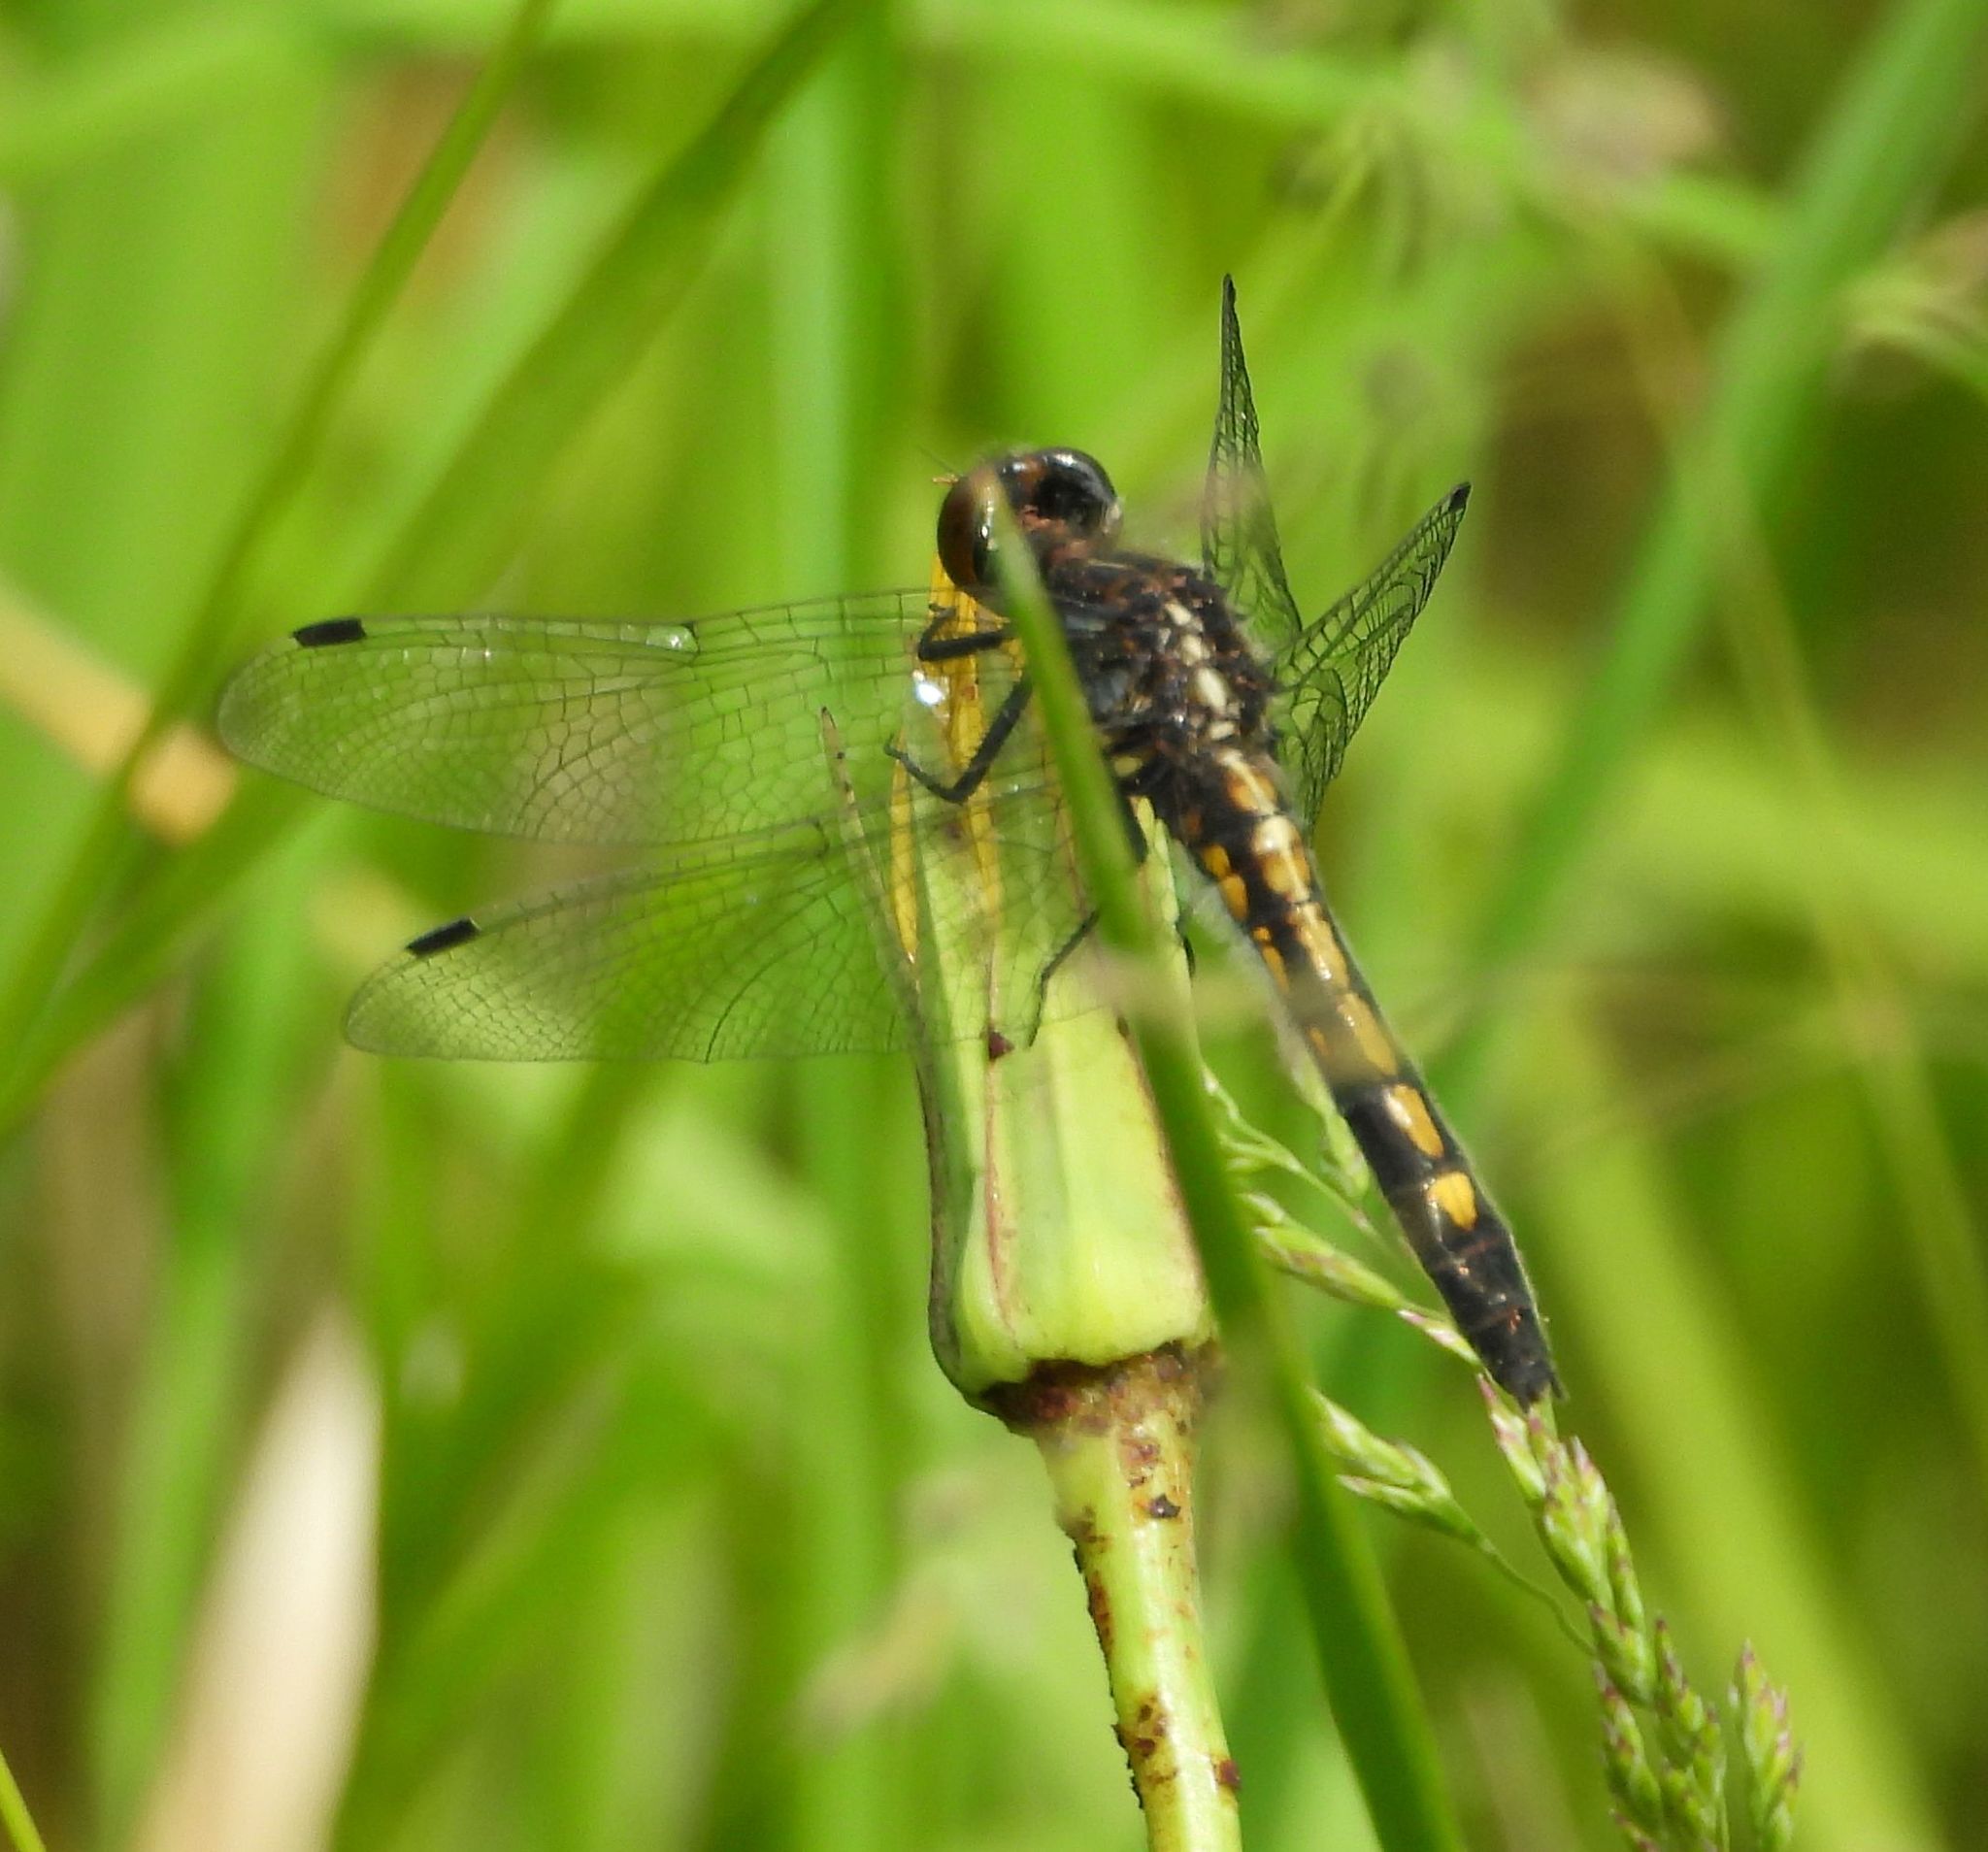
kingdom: Animalia
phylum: Arthropoda
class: Insecta
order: Odonata
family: Libellulidae
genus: Leucorrhinia
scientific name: Leucorrhinia intacta
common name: Dot-tailed whiteface
